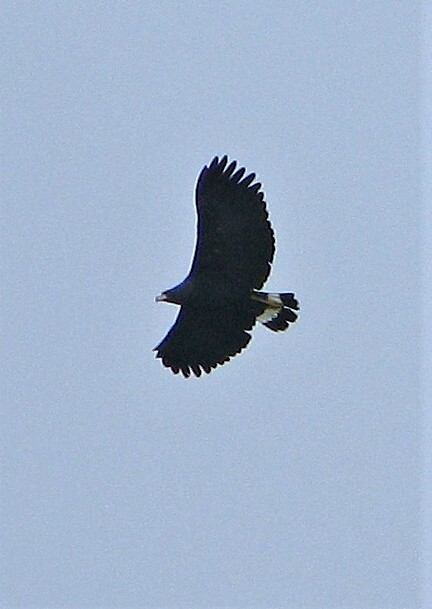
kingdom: Animalia
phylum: Chordata
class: Aves
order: Accipitriformes
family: Accipitridae
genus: Buteogallus
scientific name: Buteogallus urubitinga
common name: Great black hawk
